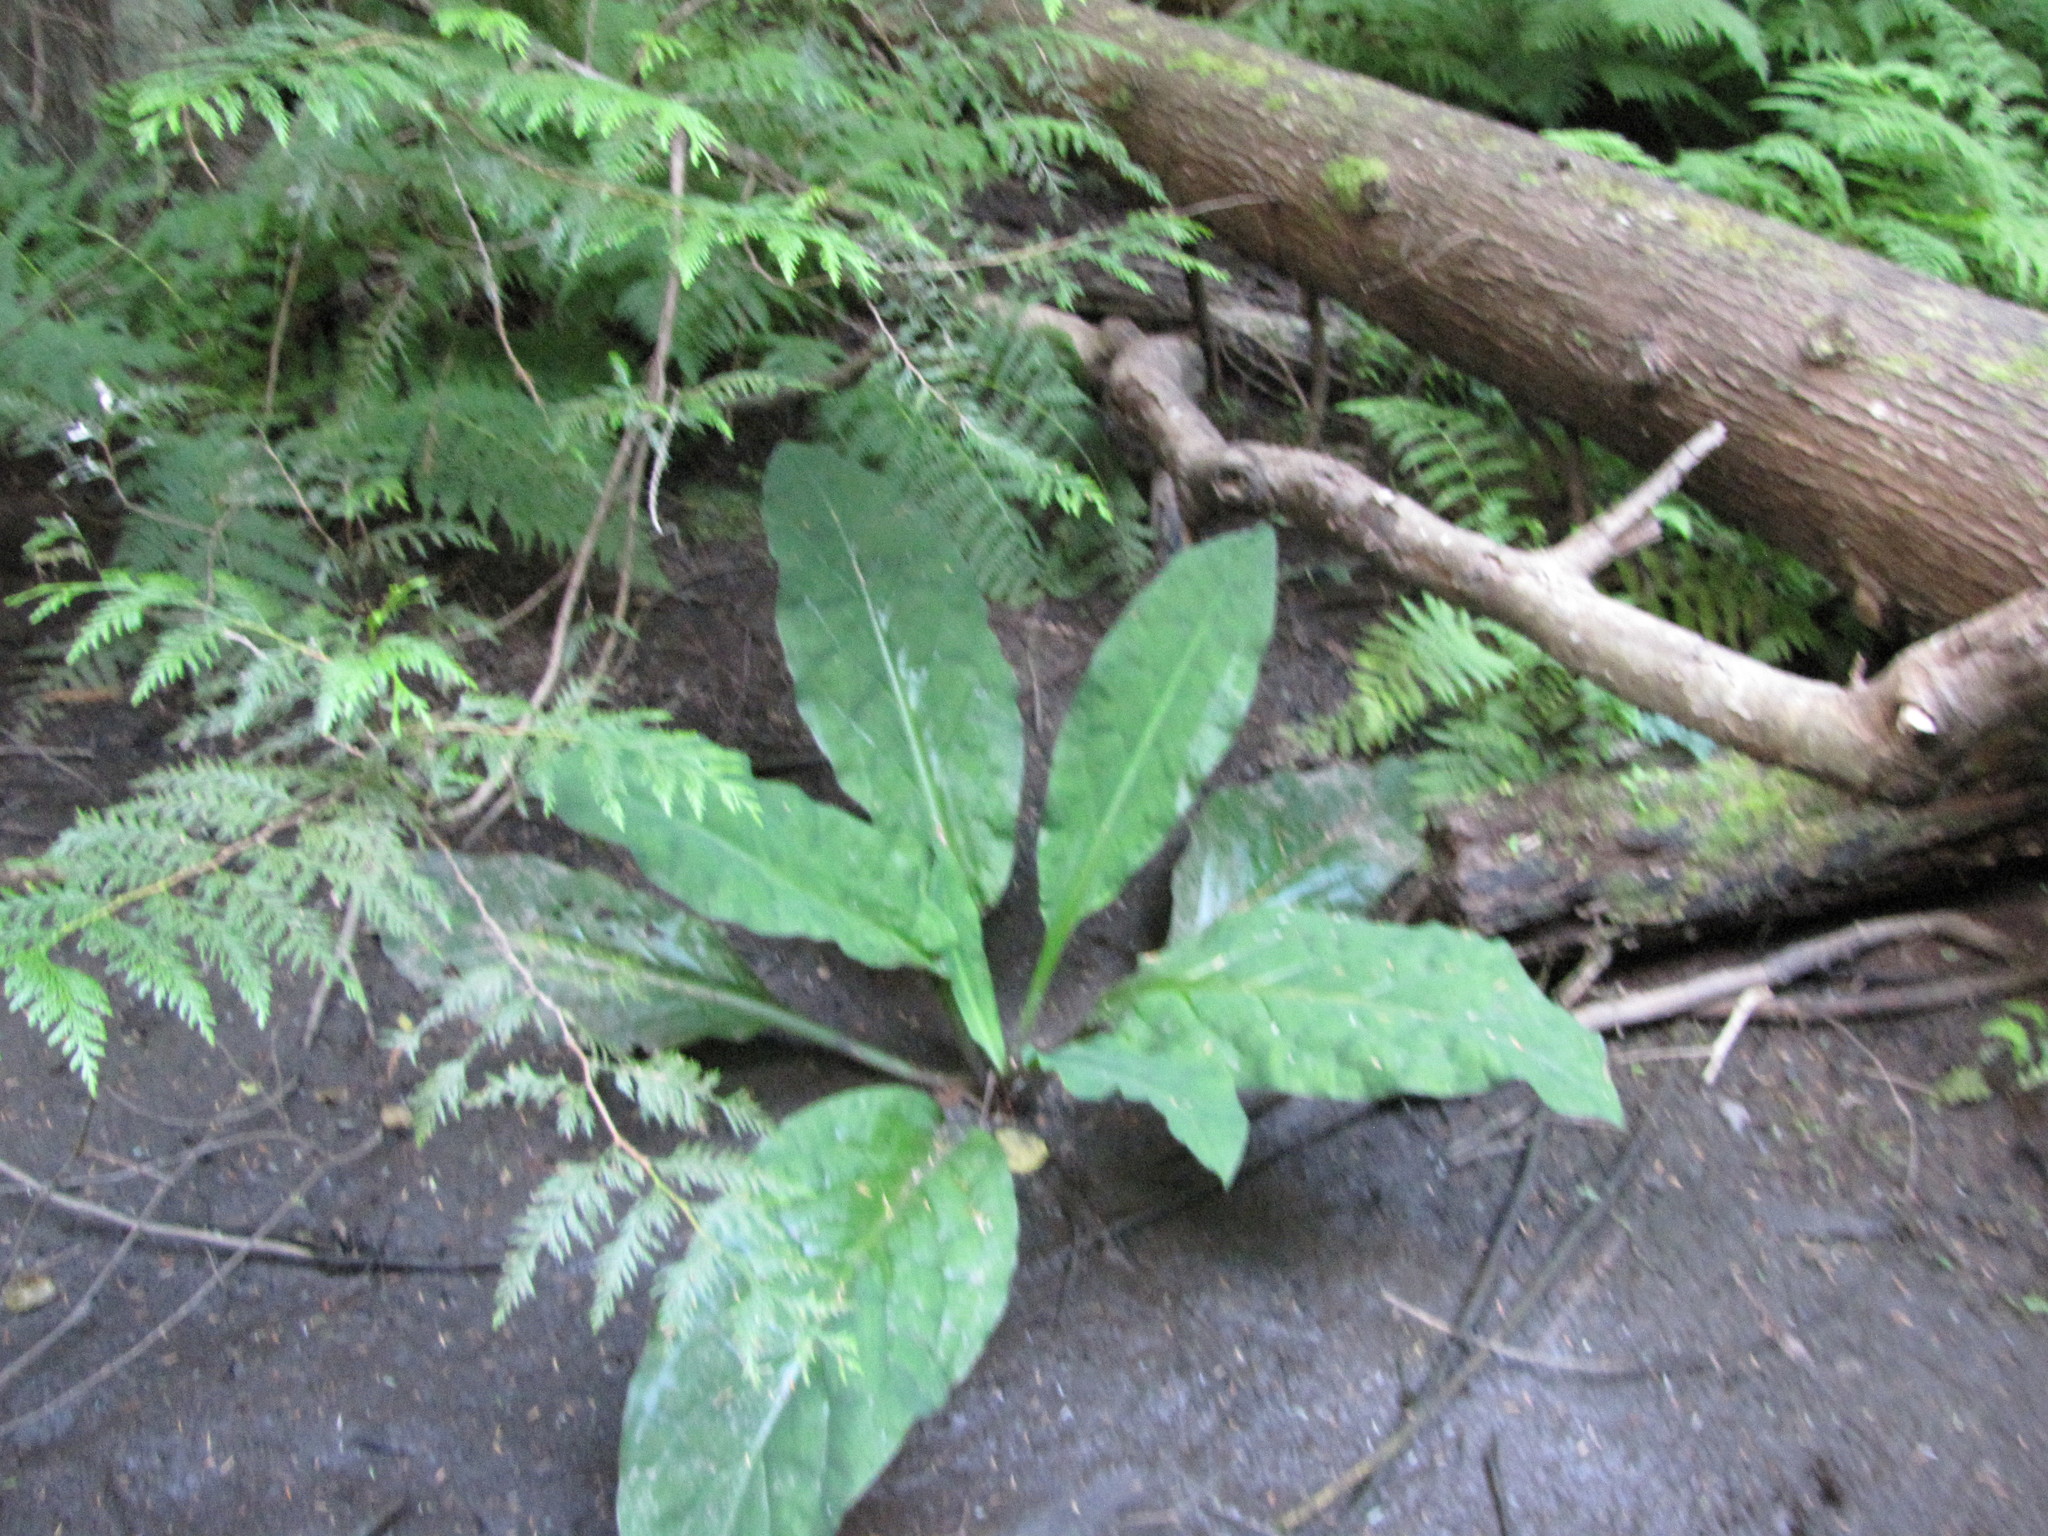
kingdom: Plantae
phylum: Tracheophyta
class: Liliopsida
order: Alismatales
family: Araceae
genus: Lysichiton
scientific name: Lysichiton americanus
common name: American skunk cabbage
